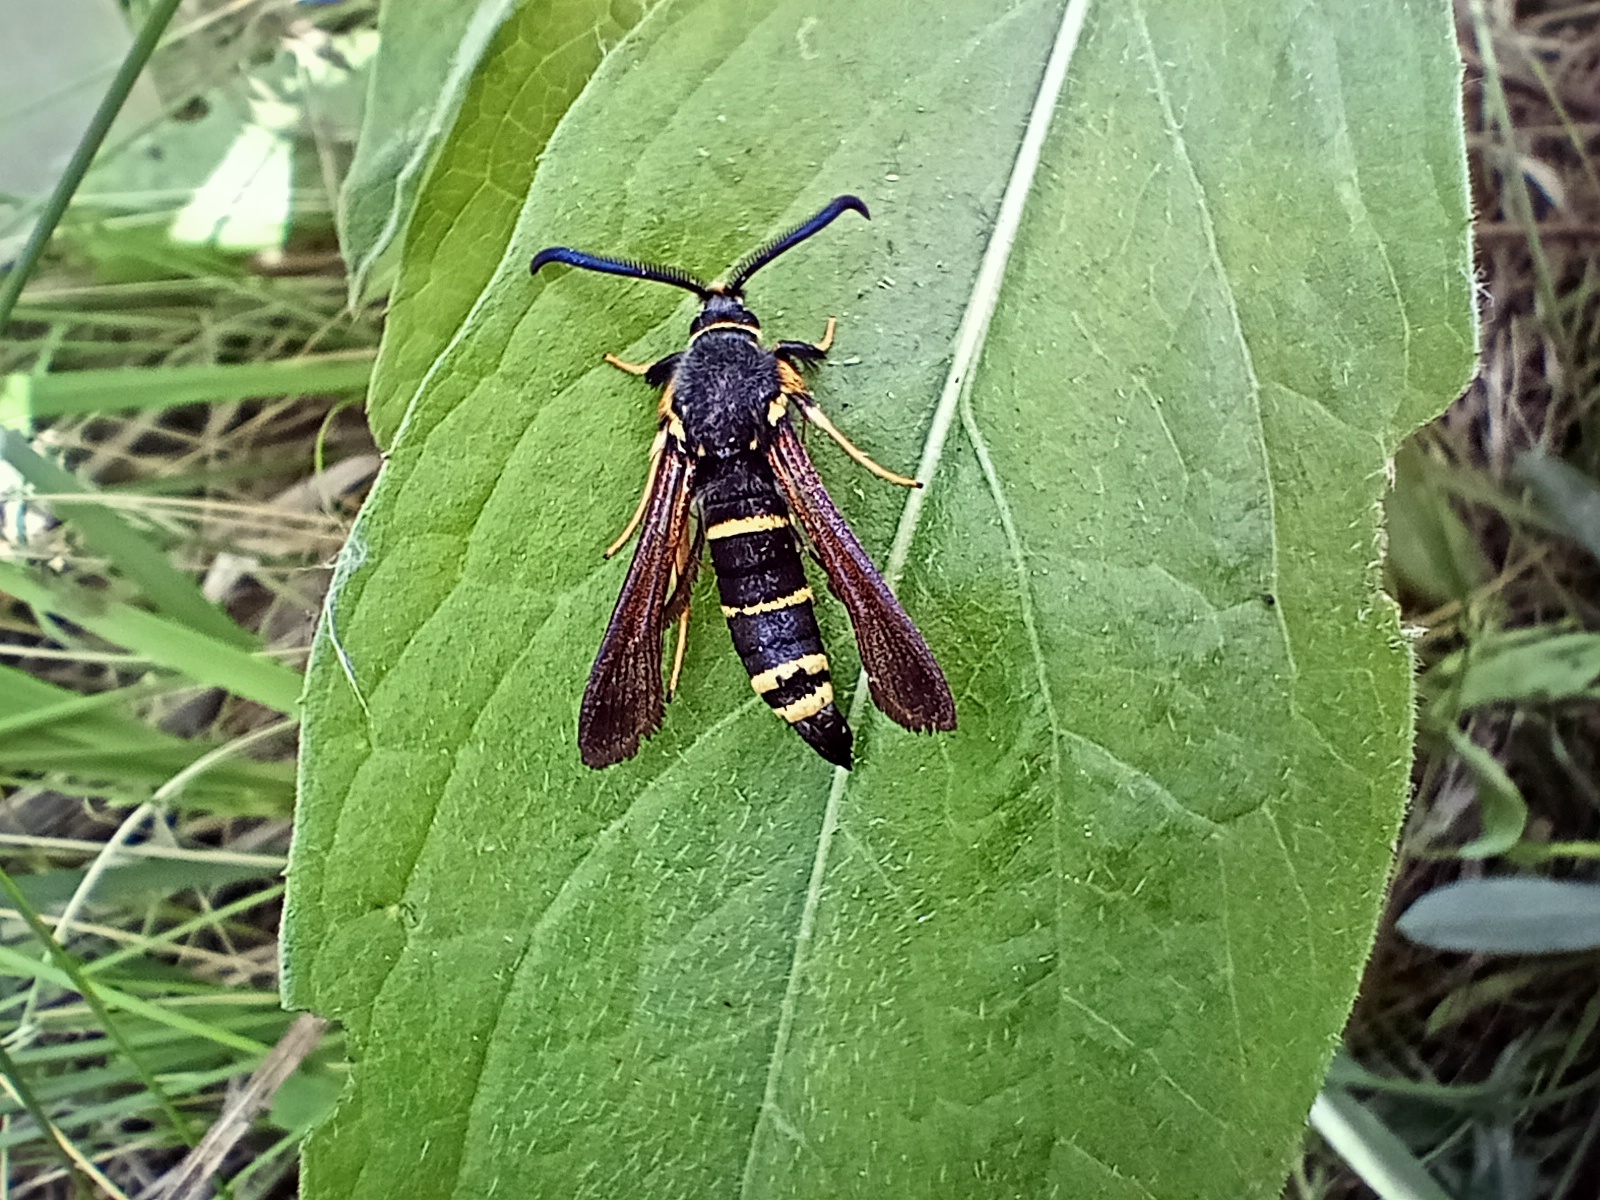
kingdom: Animalia
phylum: Arthropoda
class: Insecta
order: Lepidoptera
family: Sesiidae
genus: Paranthrene
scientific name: Paranthrene tabaniformis
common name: Dusky clearwing
